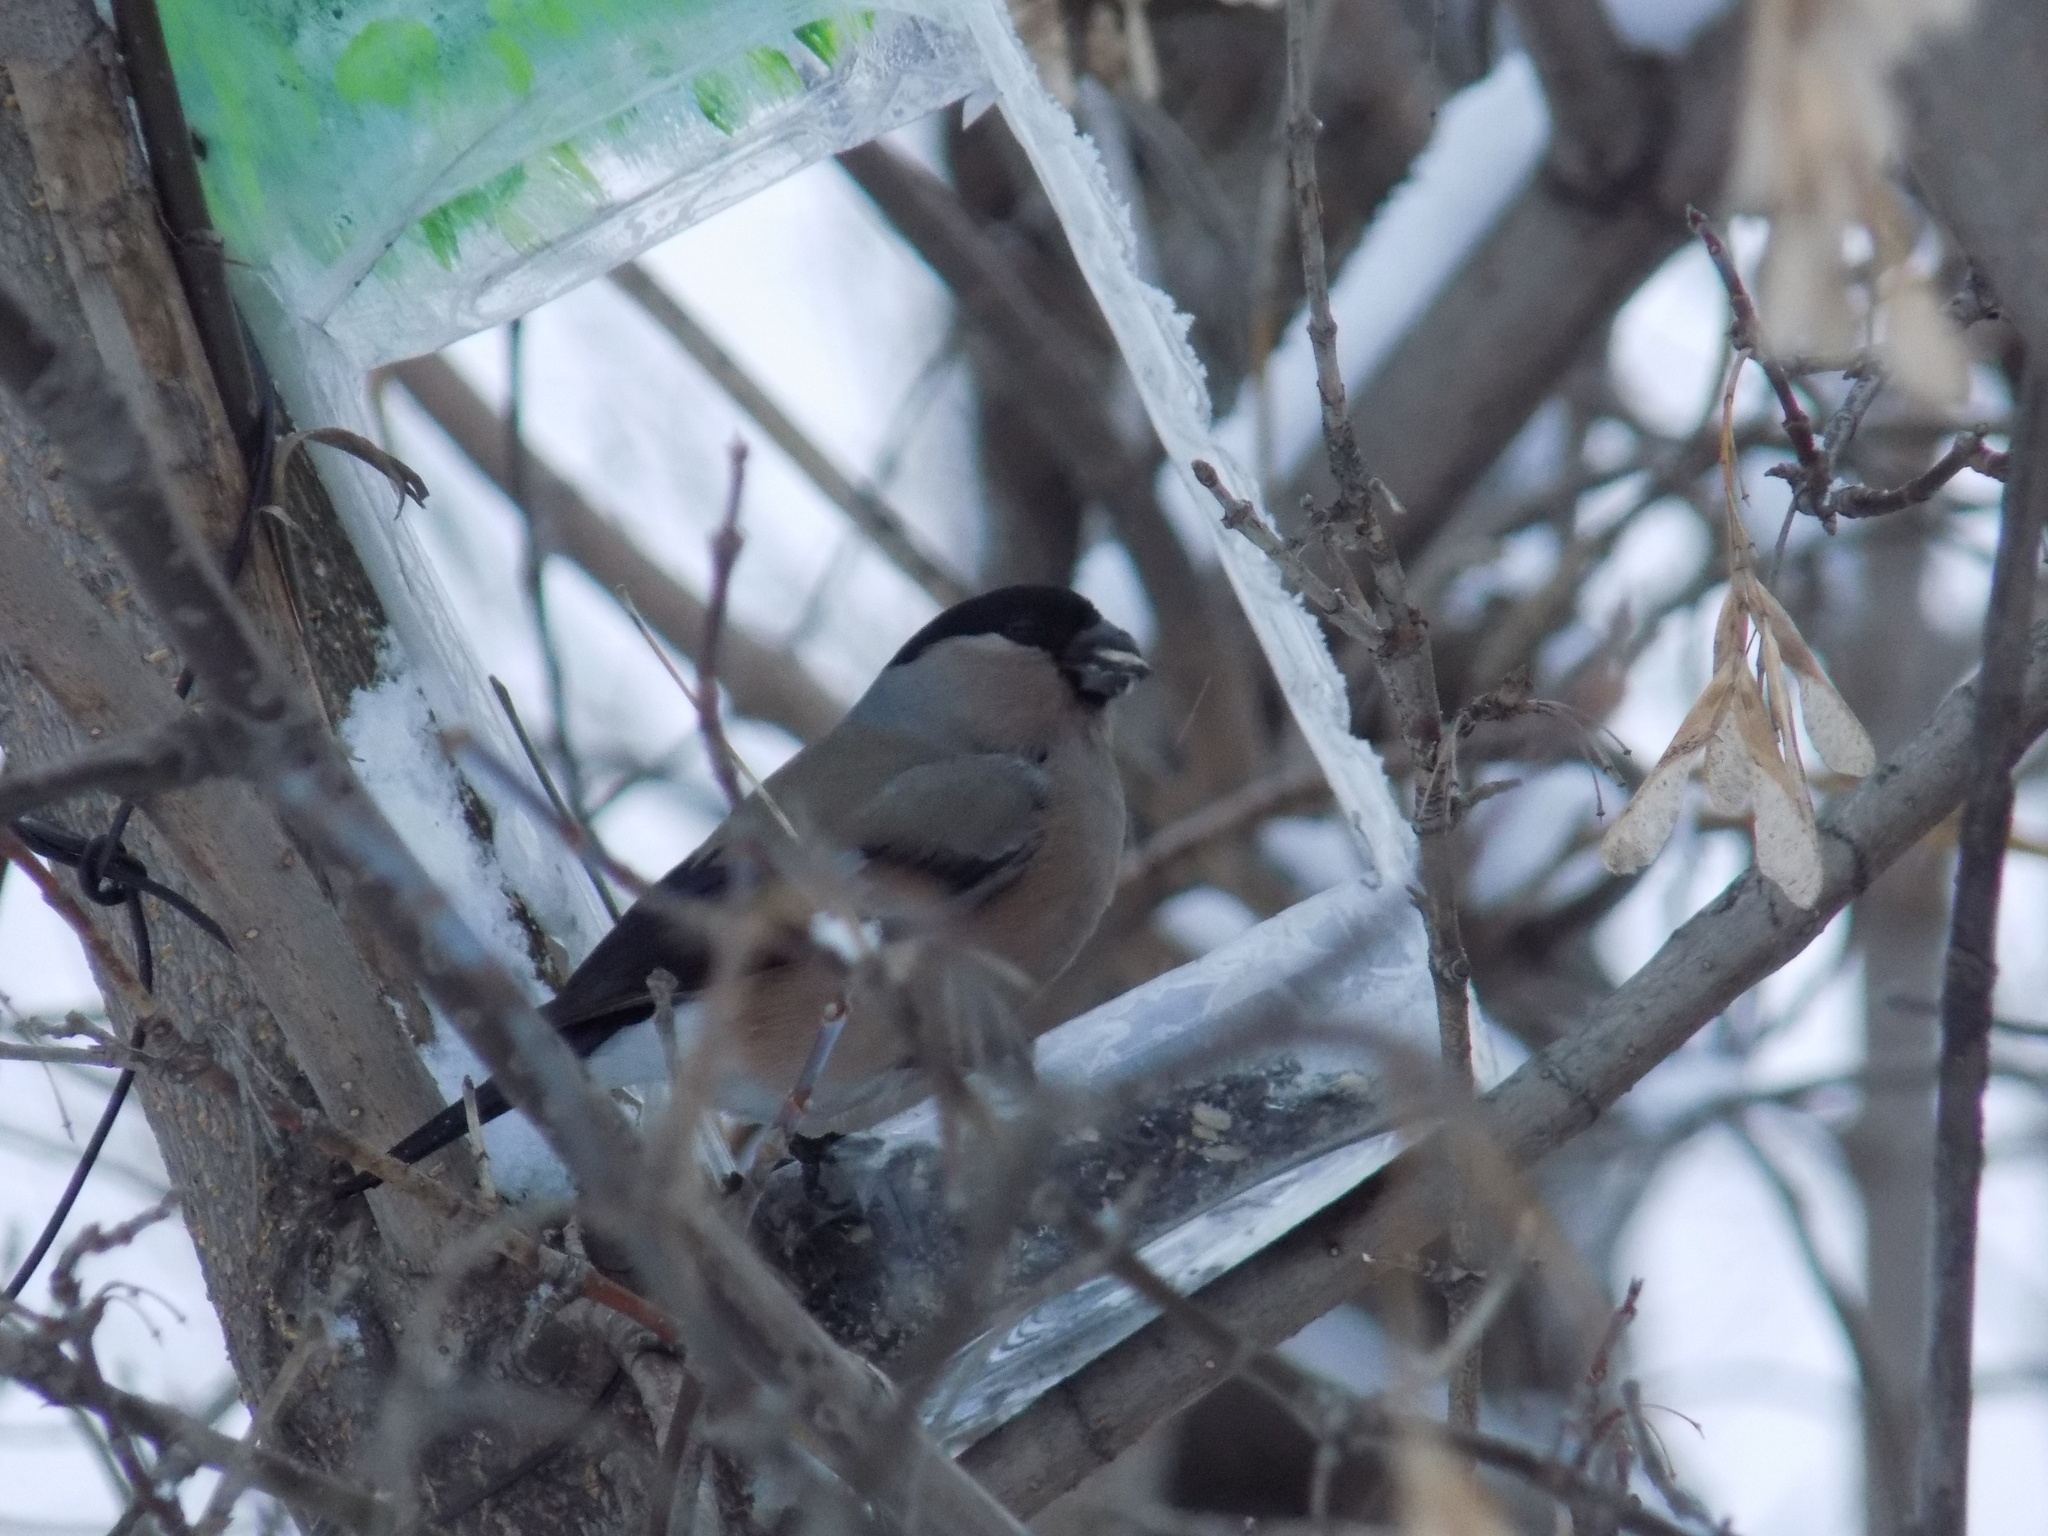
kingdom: Animalia
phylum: Chordata
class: Aves
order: Passeriformes
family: Fringillidae
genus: Pyrrhula
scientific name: Pyrrhula pyrrhula
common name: Eurasian bullfinch
